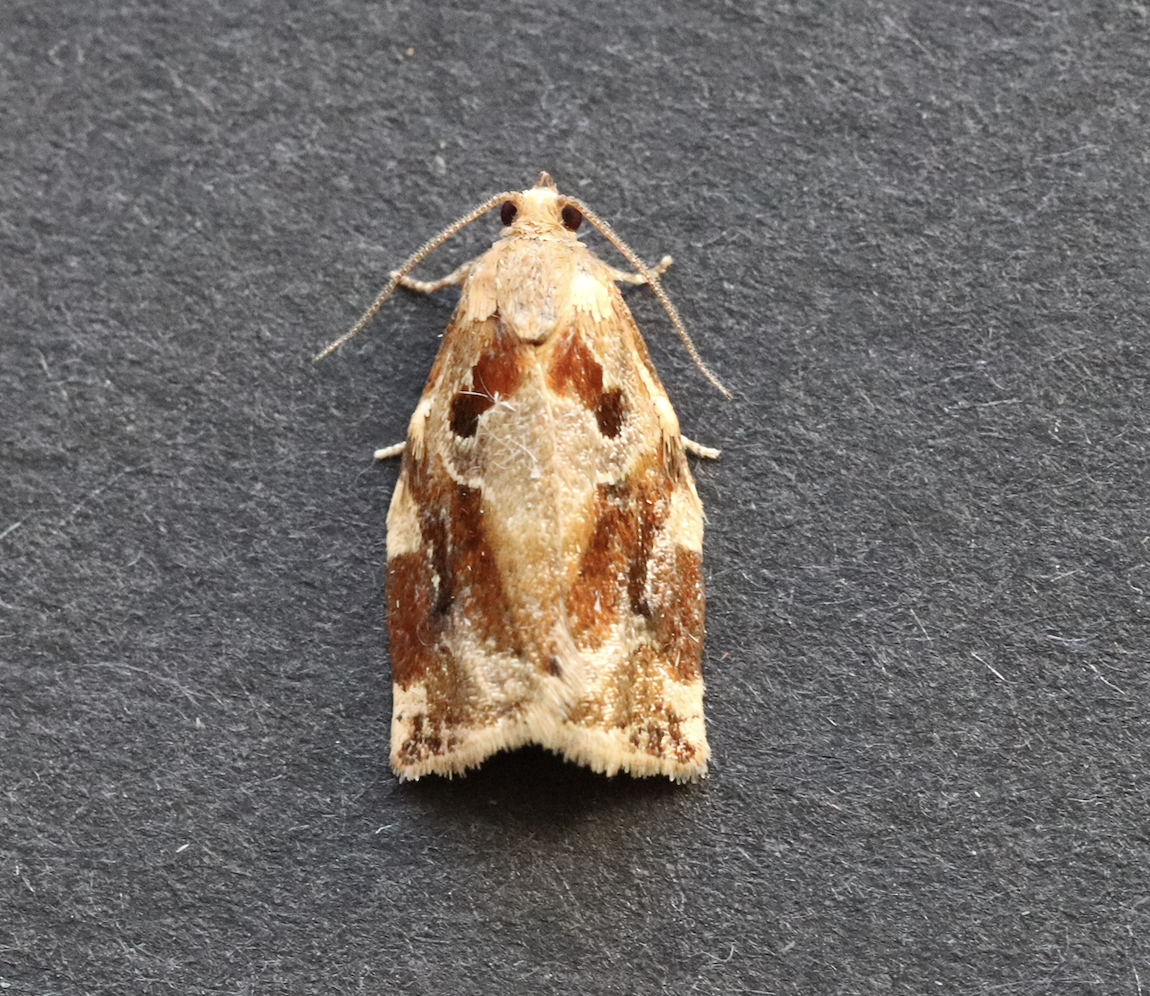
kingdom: Animalia
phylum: Arthropoda
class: Insecta
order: Lepidoptera
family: Tortricidae
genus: Archips
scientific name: Archips xylosteana
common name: Variegated golden tortrix
